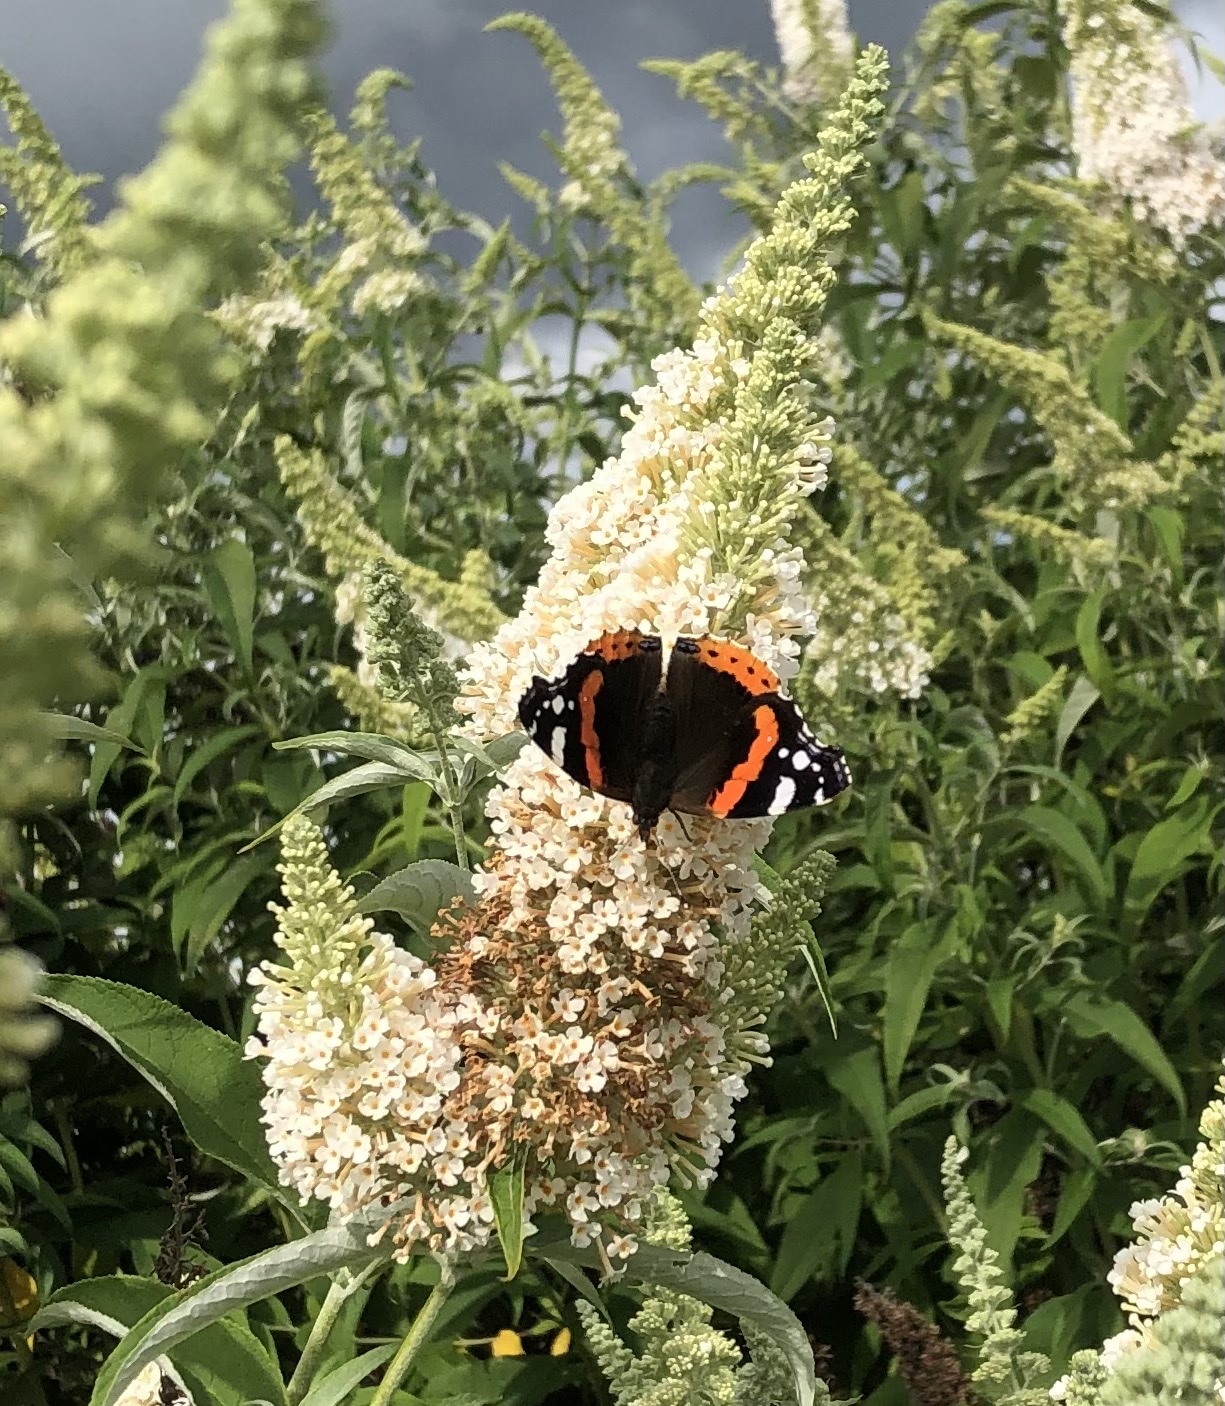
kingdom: Animalia
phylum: Arthropoda
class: Insecta
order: Lepidoptera
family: Nymphalidae
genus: Vanessa
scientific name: Vanessa atalanta
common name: Red admiral
